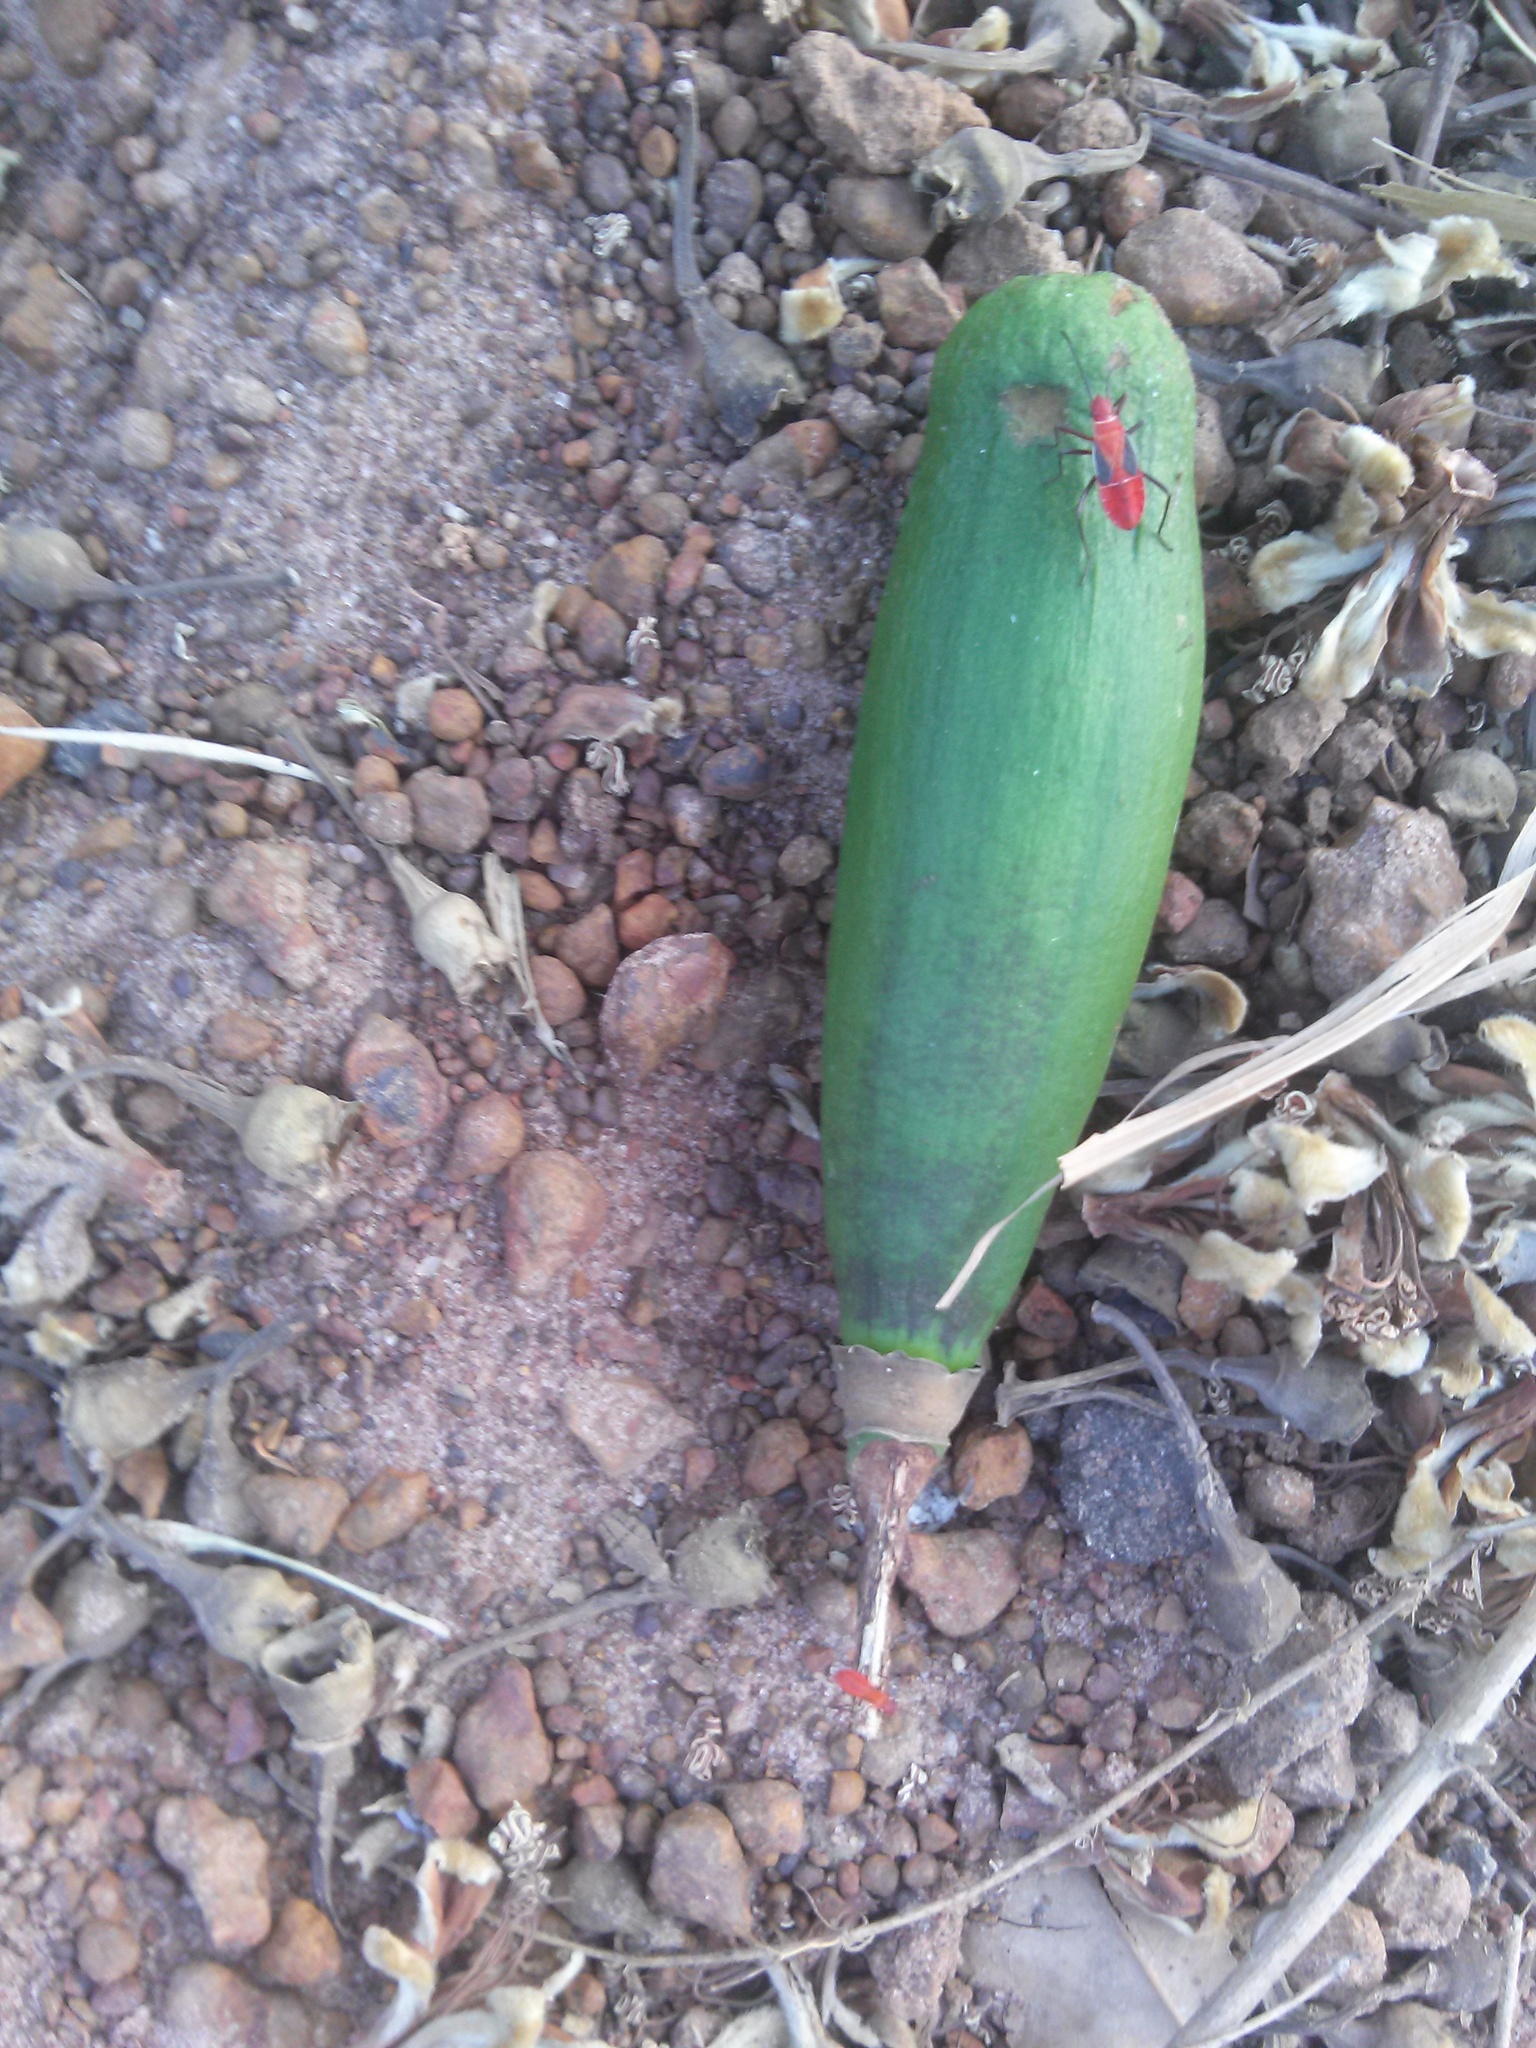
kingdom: Plantae
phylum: Tracheophyta
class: Magnoliopsida
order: Malvales
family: Malvaceae
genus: Ceiba
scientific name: Ceiba pentandra
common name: Kapok
